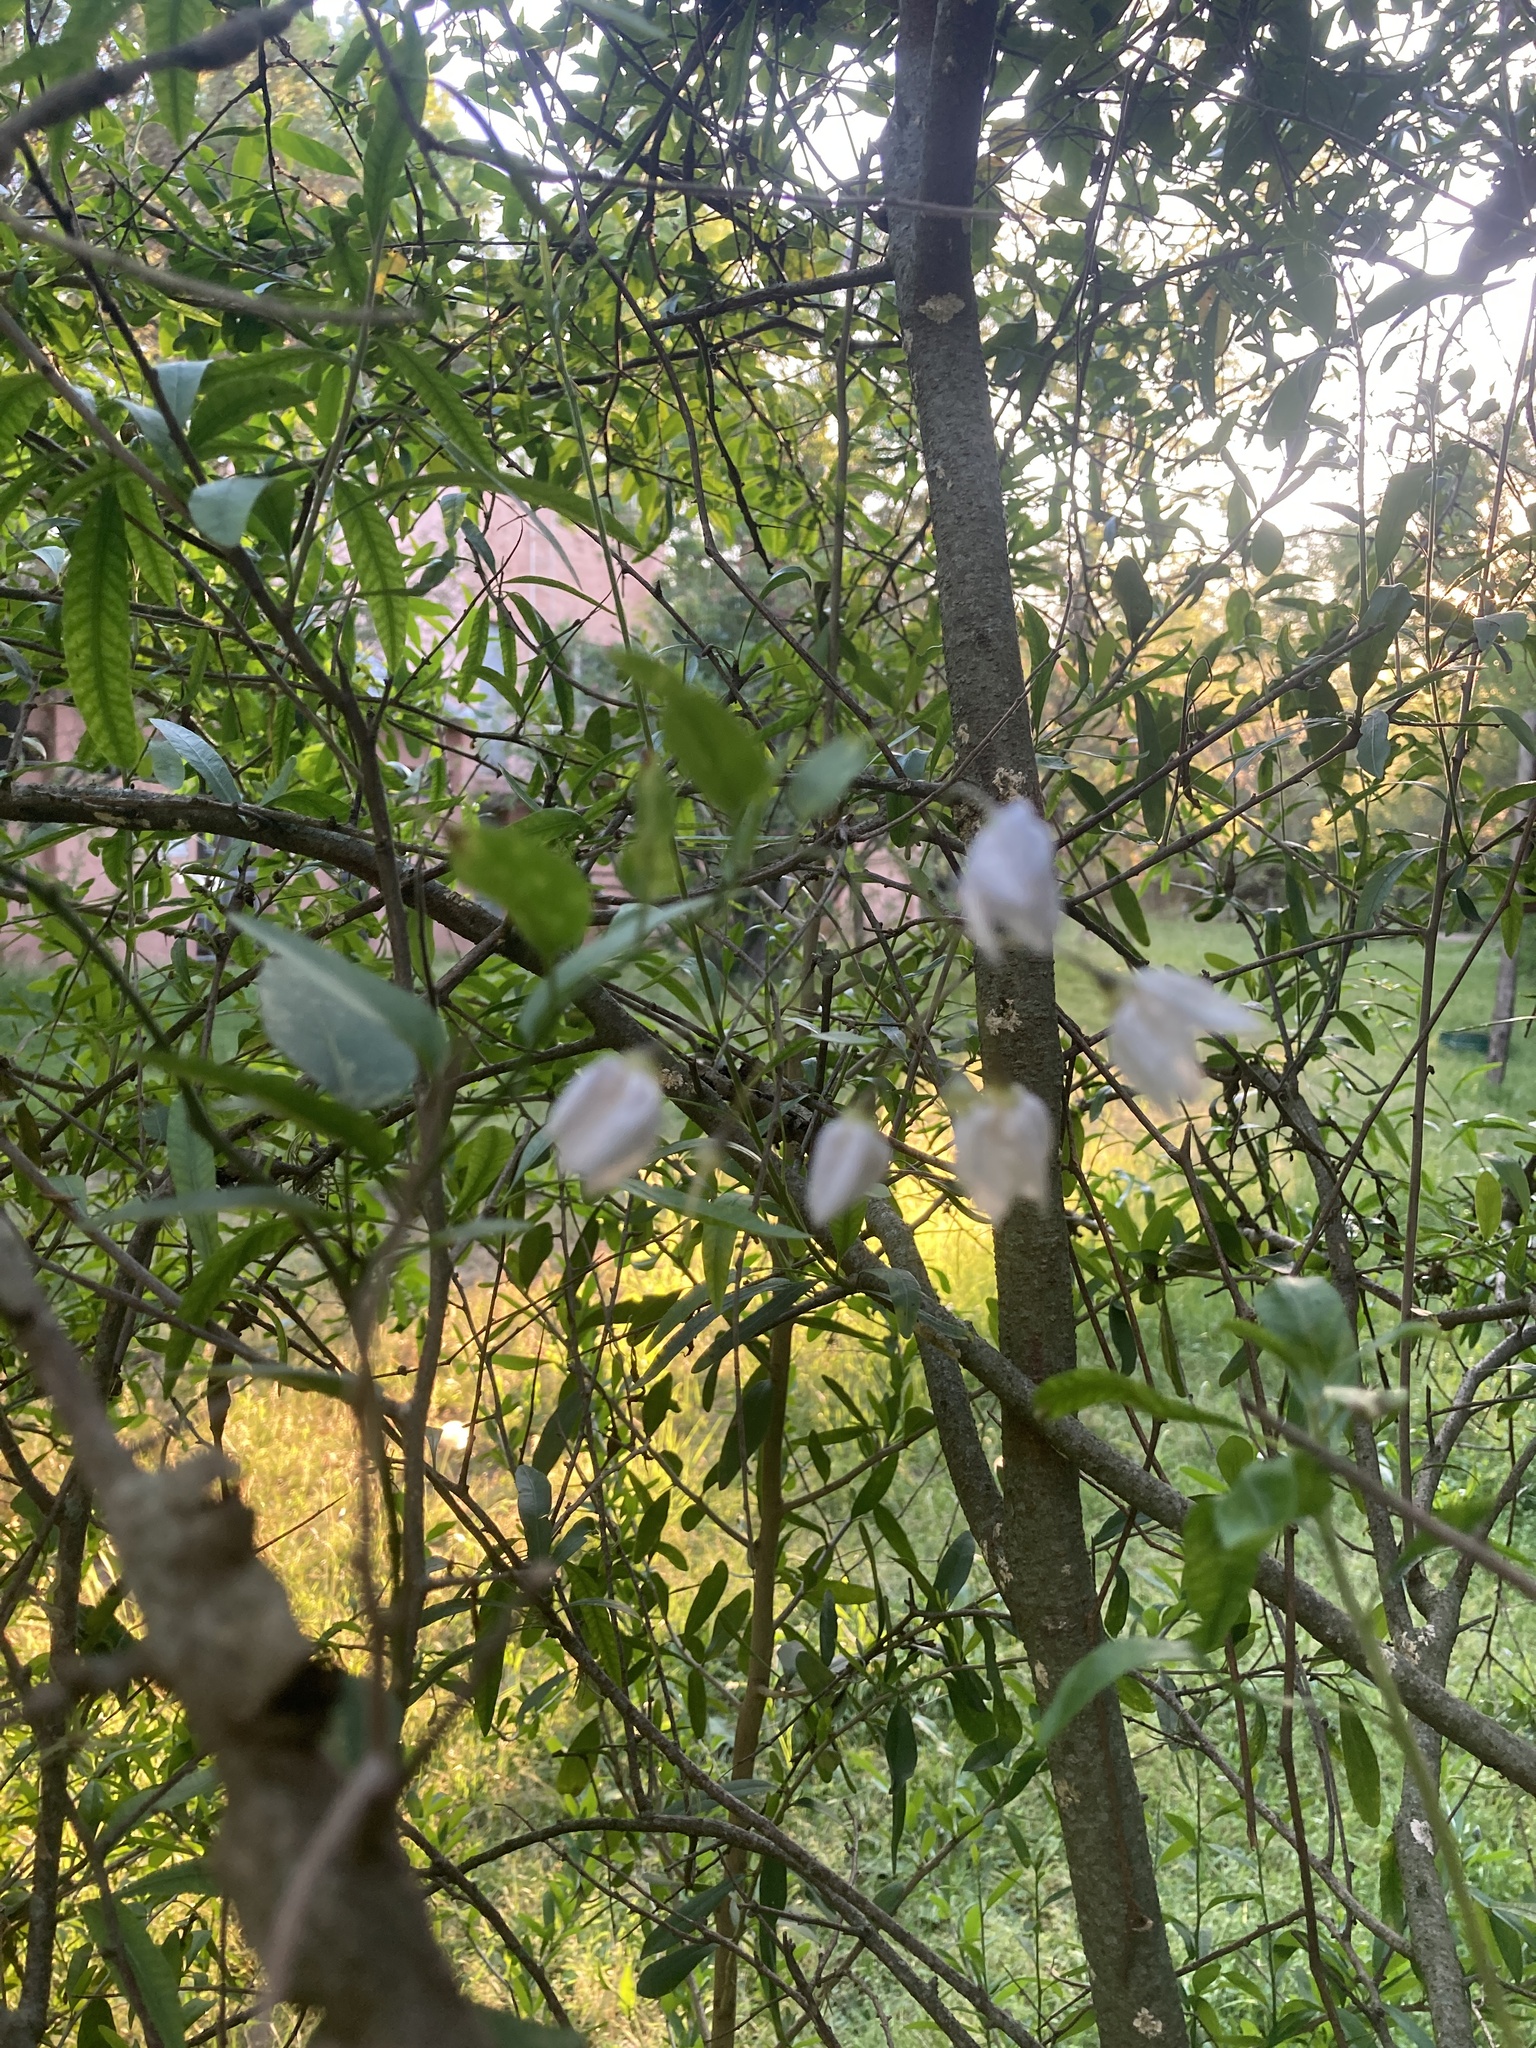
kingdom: Plantae
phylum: Tracheophyta
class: Magnoliopsida
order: Solanales
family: Solanaceae
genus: Solanum
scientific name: Solanum laxum
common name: Nightshade
